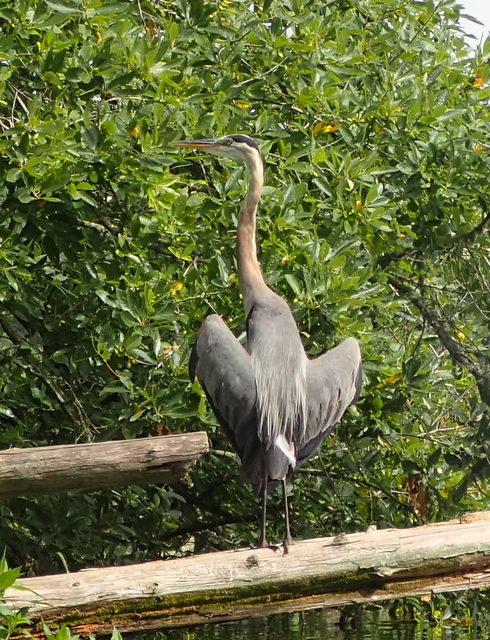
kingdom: Animalia
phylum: Chordata
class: Aves
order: Pelecaniformes
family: Ardeidae
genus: Ardea
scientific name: Ardea herodias
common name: Great blue heron
